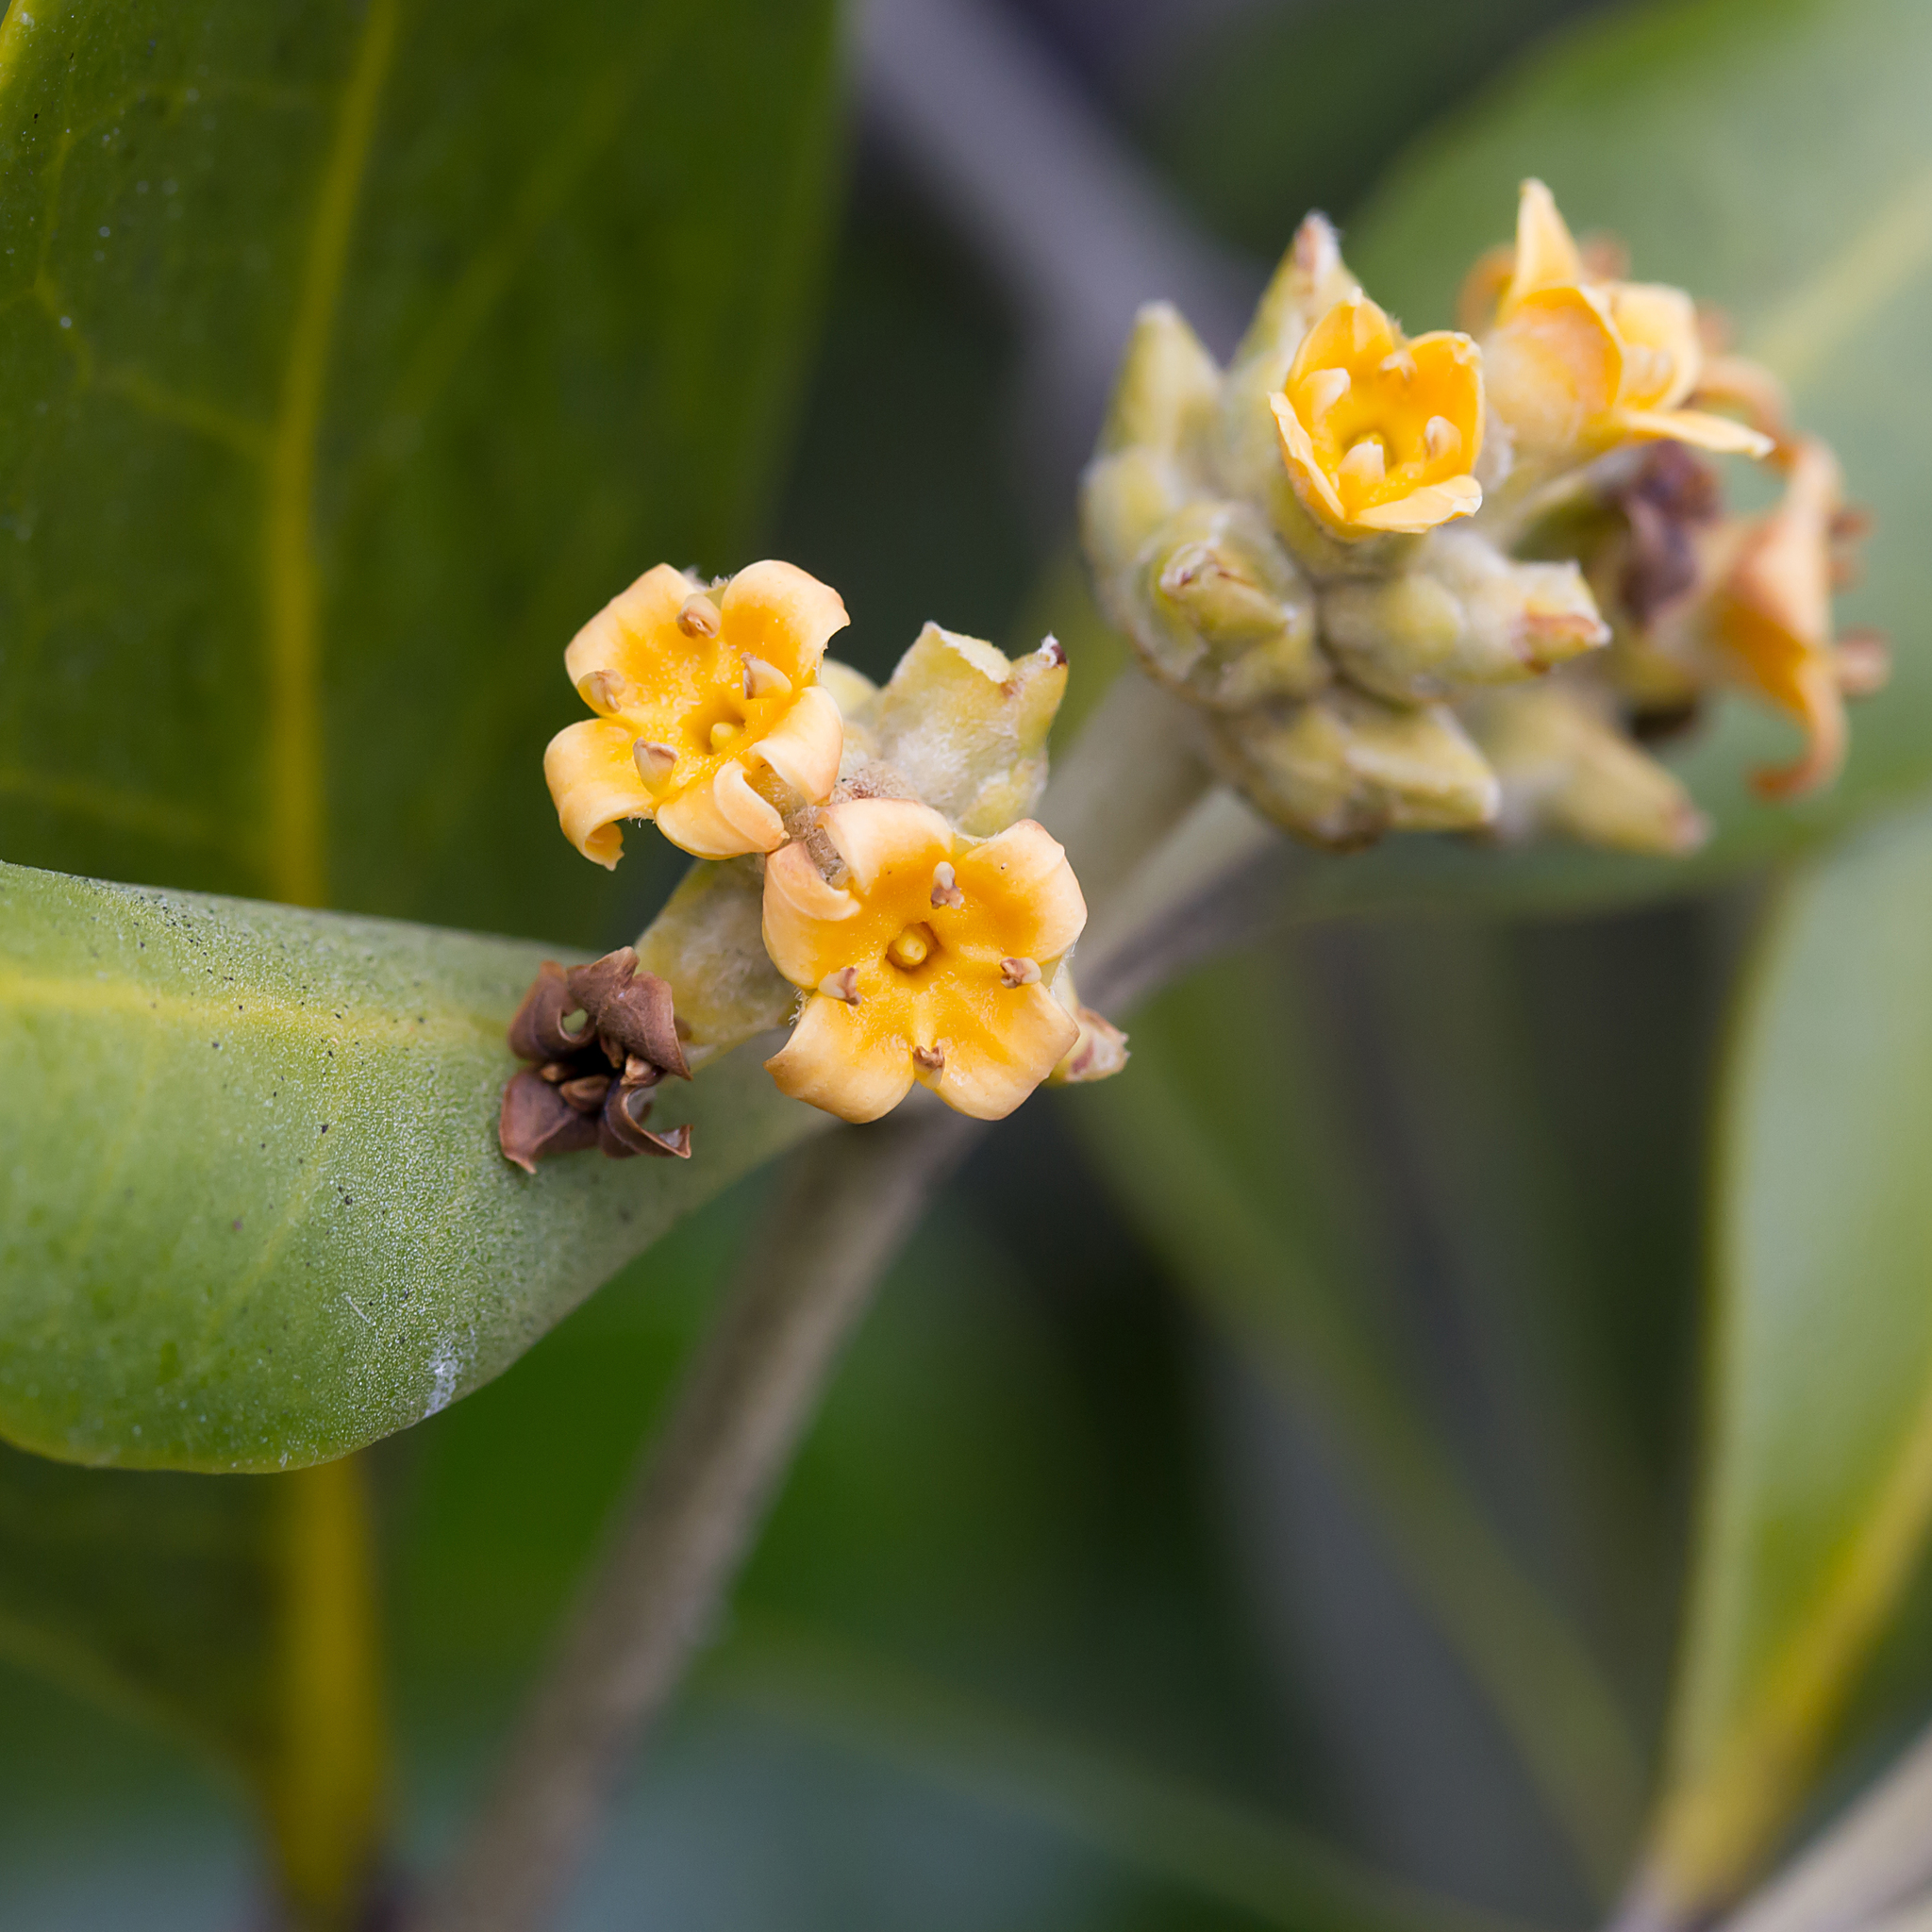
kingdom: Plantae
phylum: Tracheophyta
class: Magnoliopsida
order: Lamiales
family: Acanthaceae
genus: Avicennia
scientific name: Avicennia marina
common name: Gray mangrove
